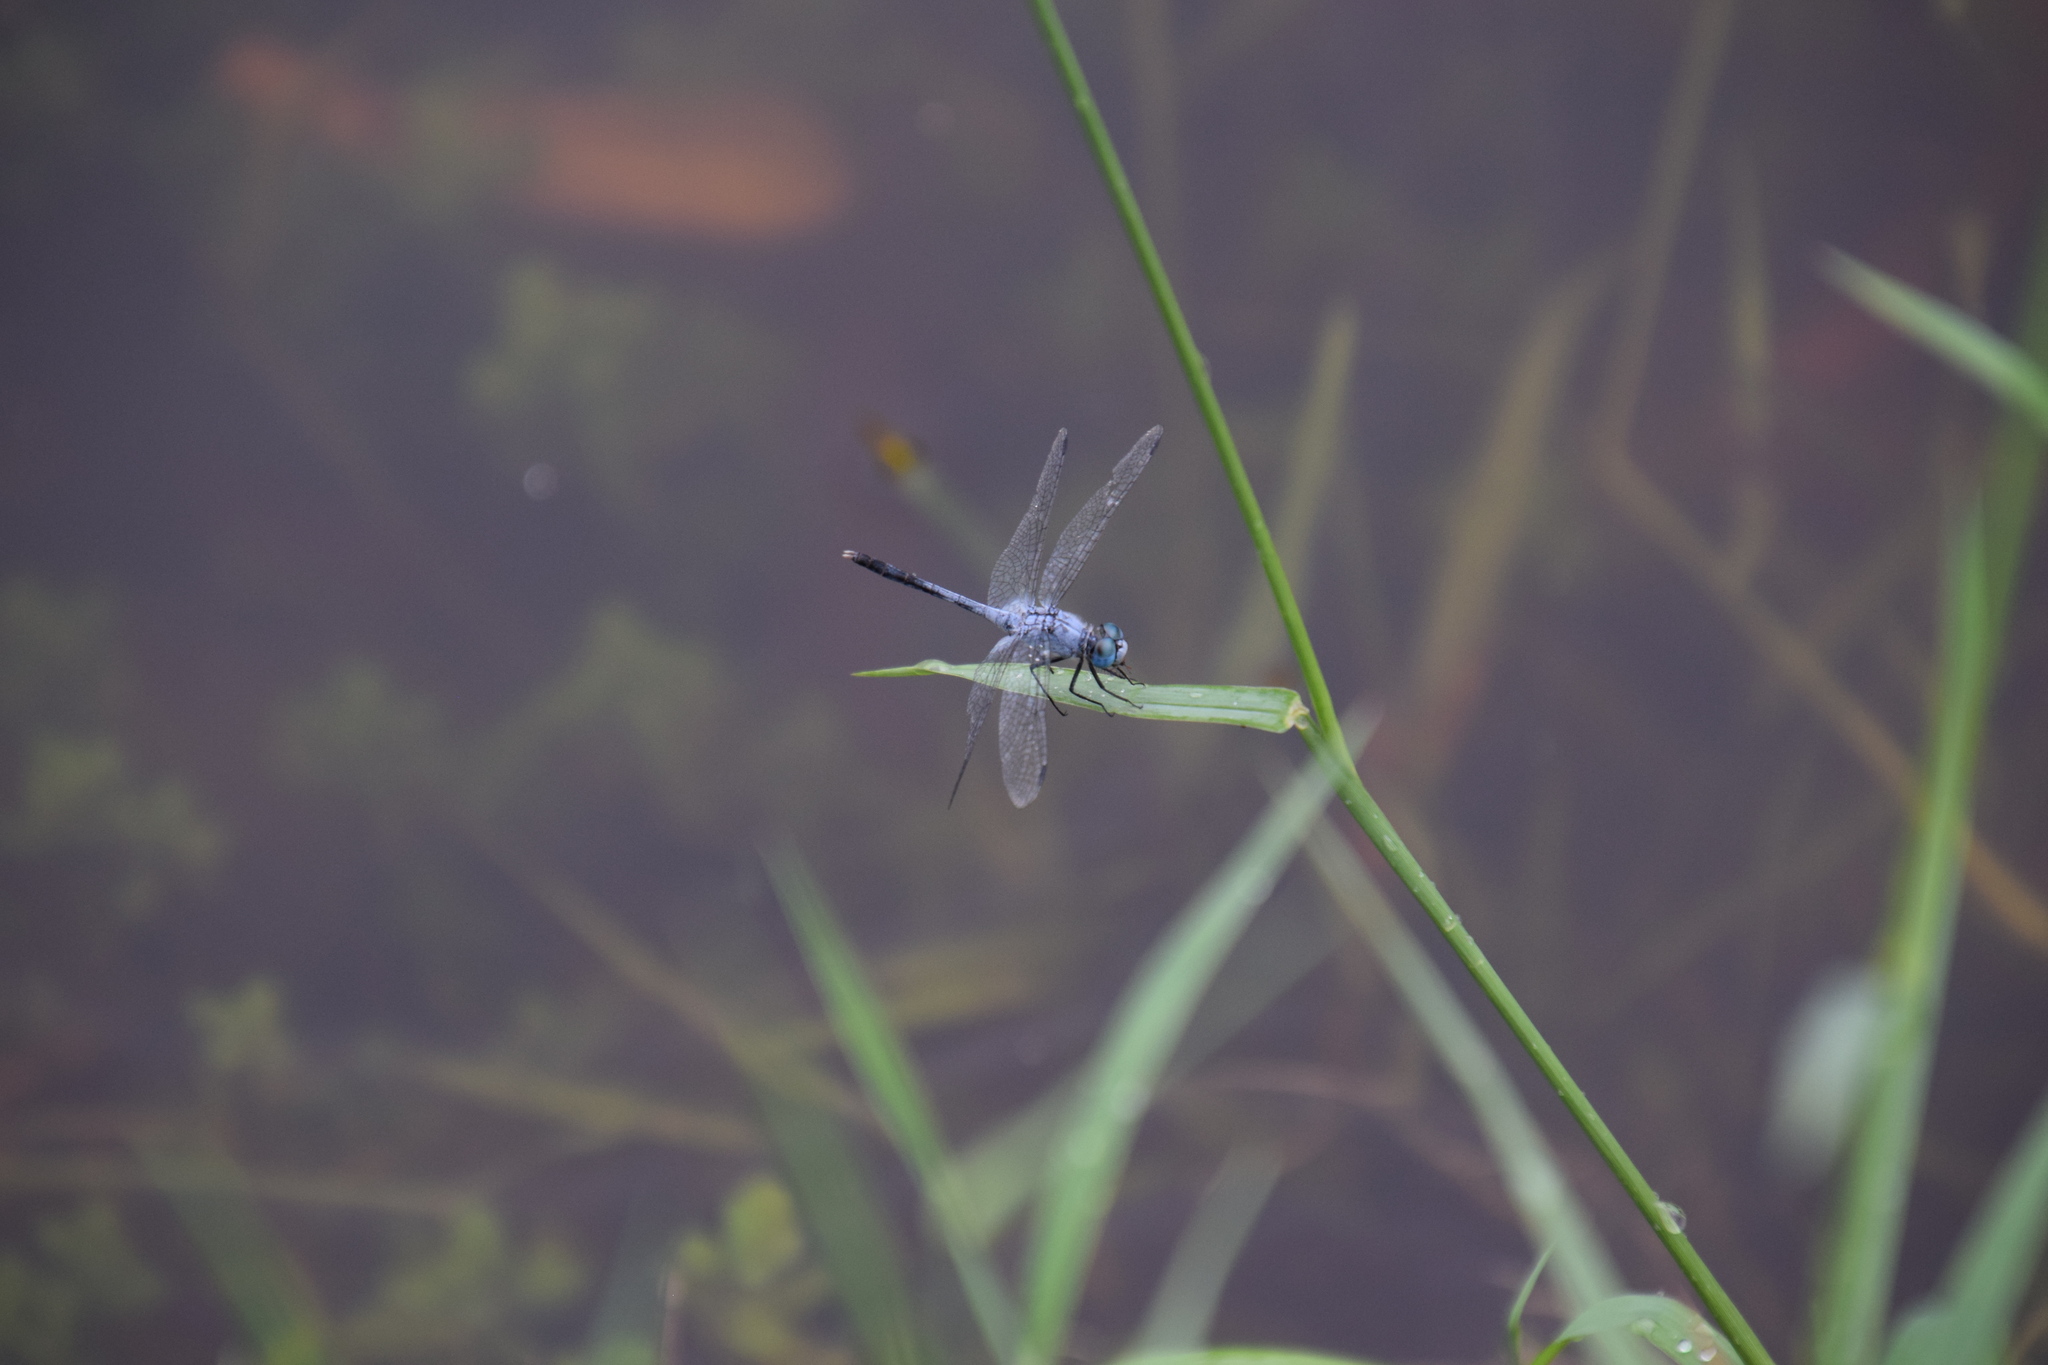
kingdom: Animalia
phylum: Arthropoda
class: Insecta
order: Odonata
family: Libellulidae
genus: Diplacodes
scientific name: Diplacodes trivialis
